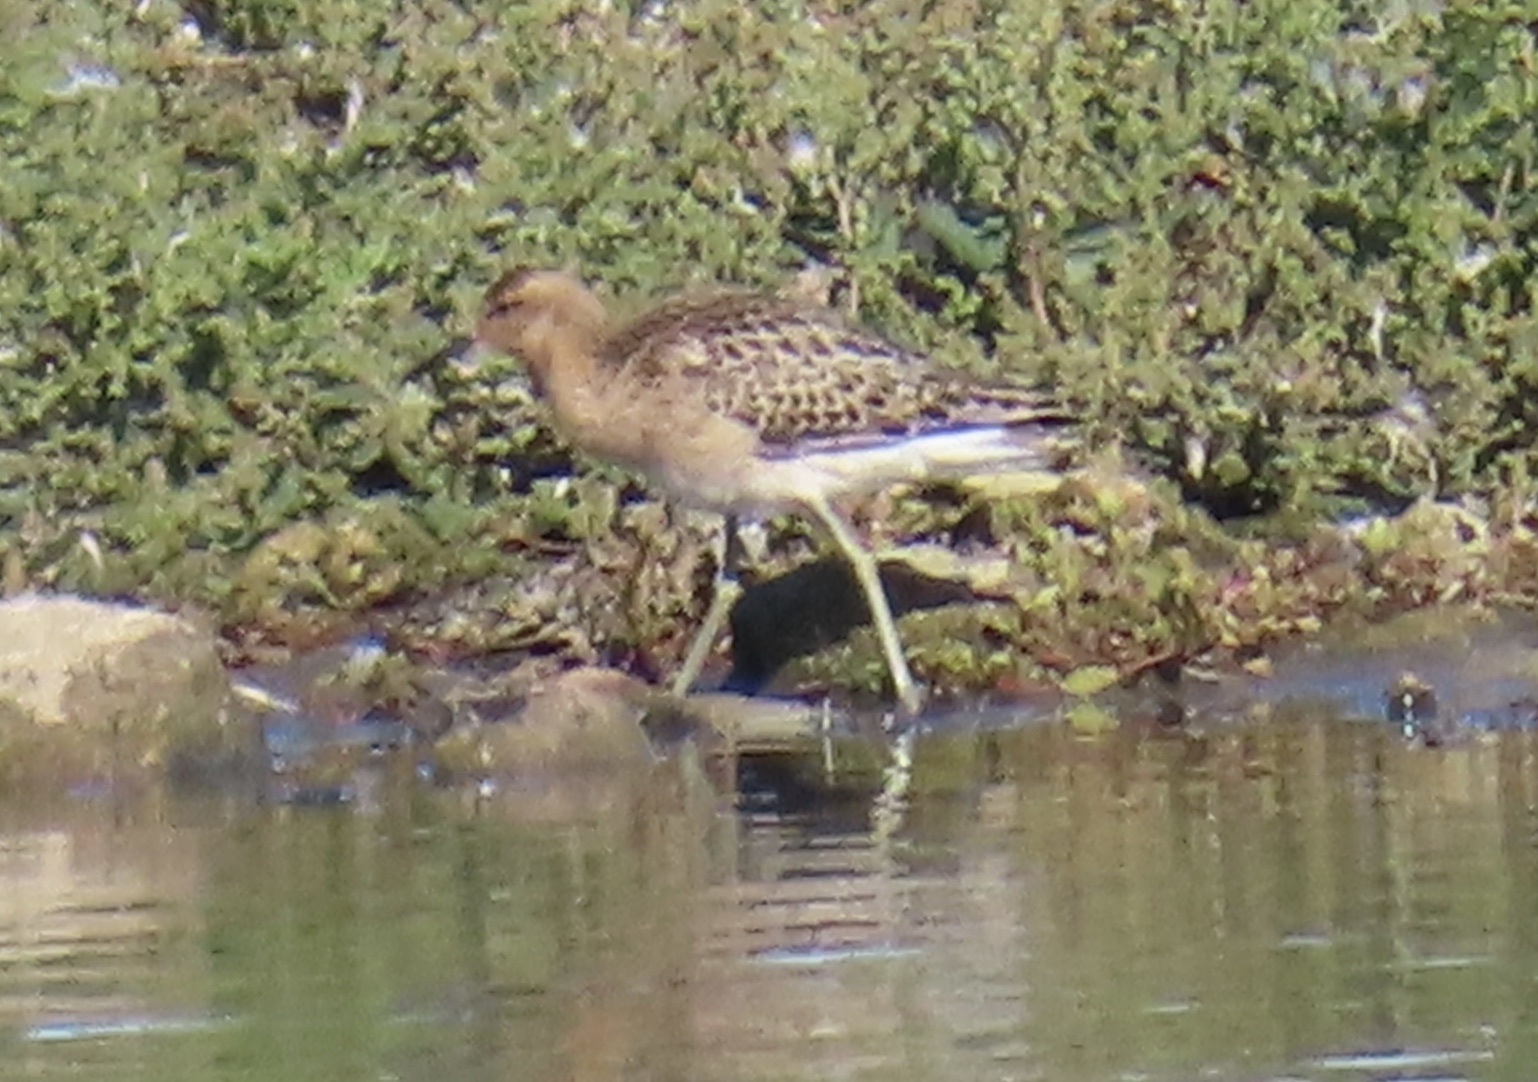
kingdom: Animalia
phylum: Chordata
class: Aves
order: Charadriiformes
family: Scolopacidae
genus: Calidris
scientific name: Calidris pugnax
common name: Ruff
